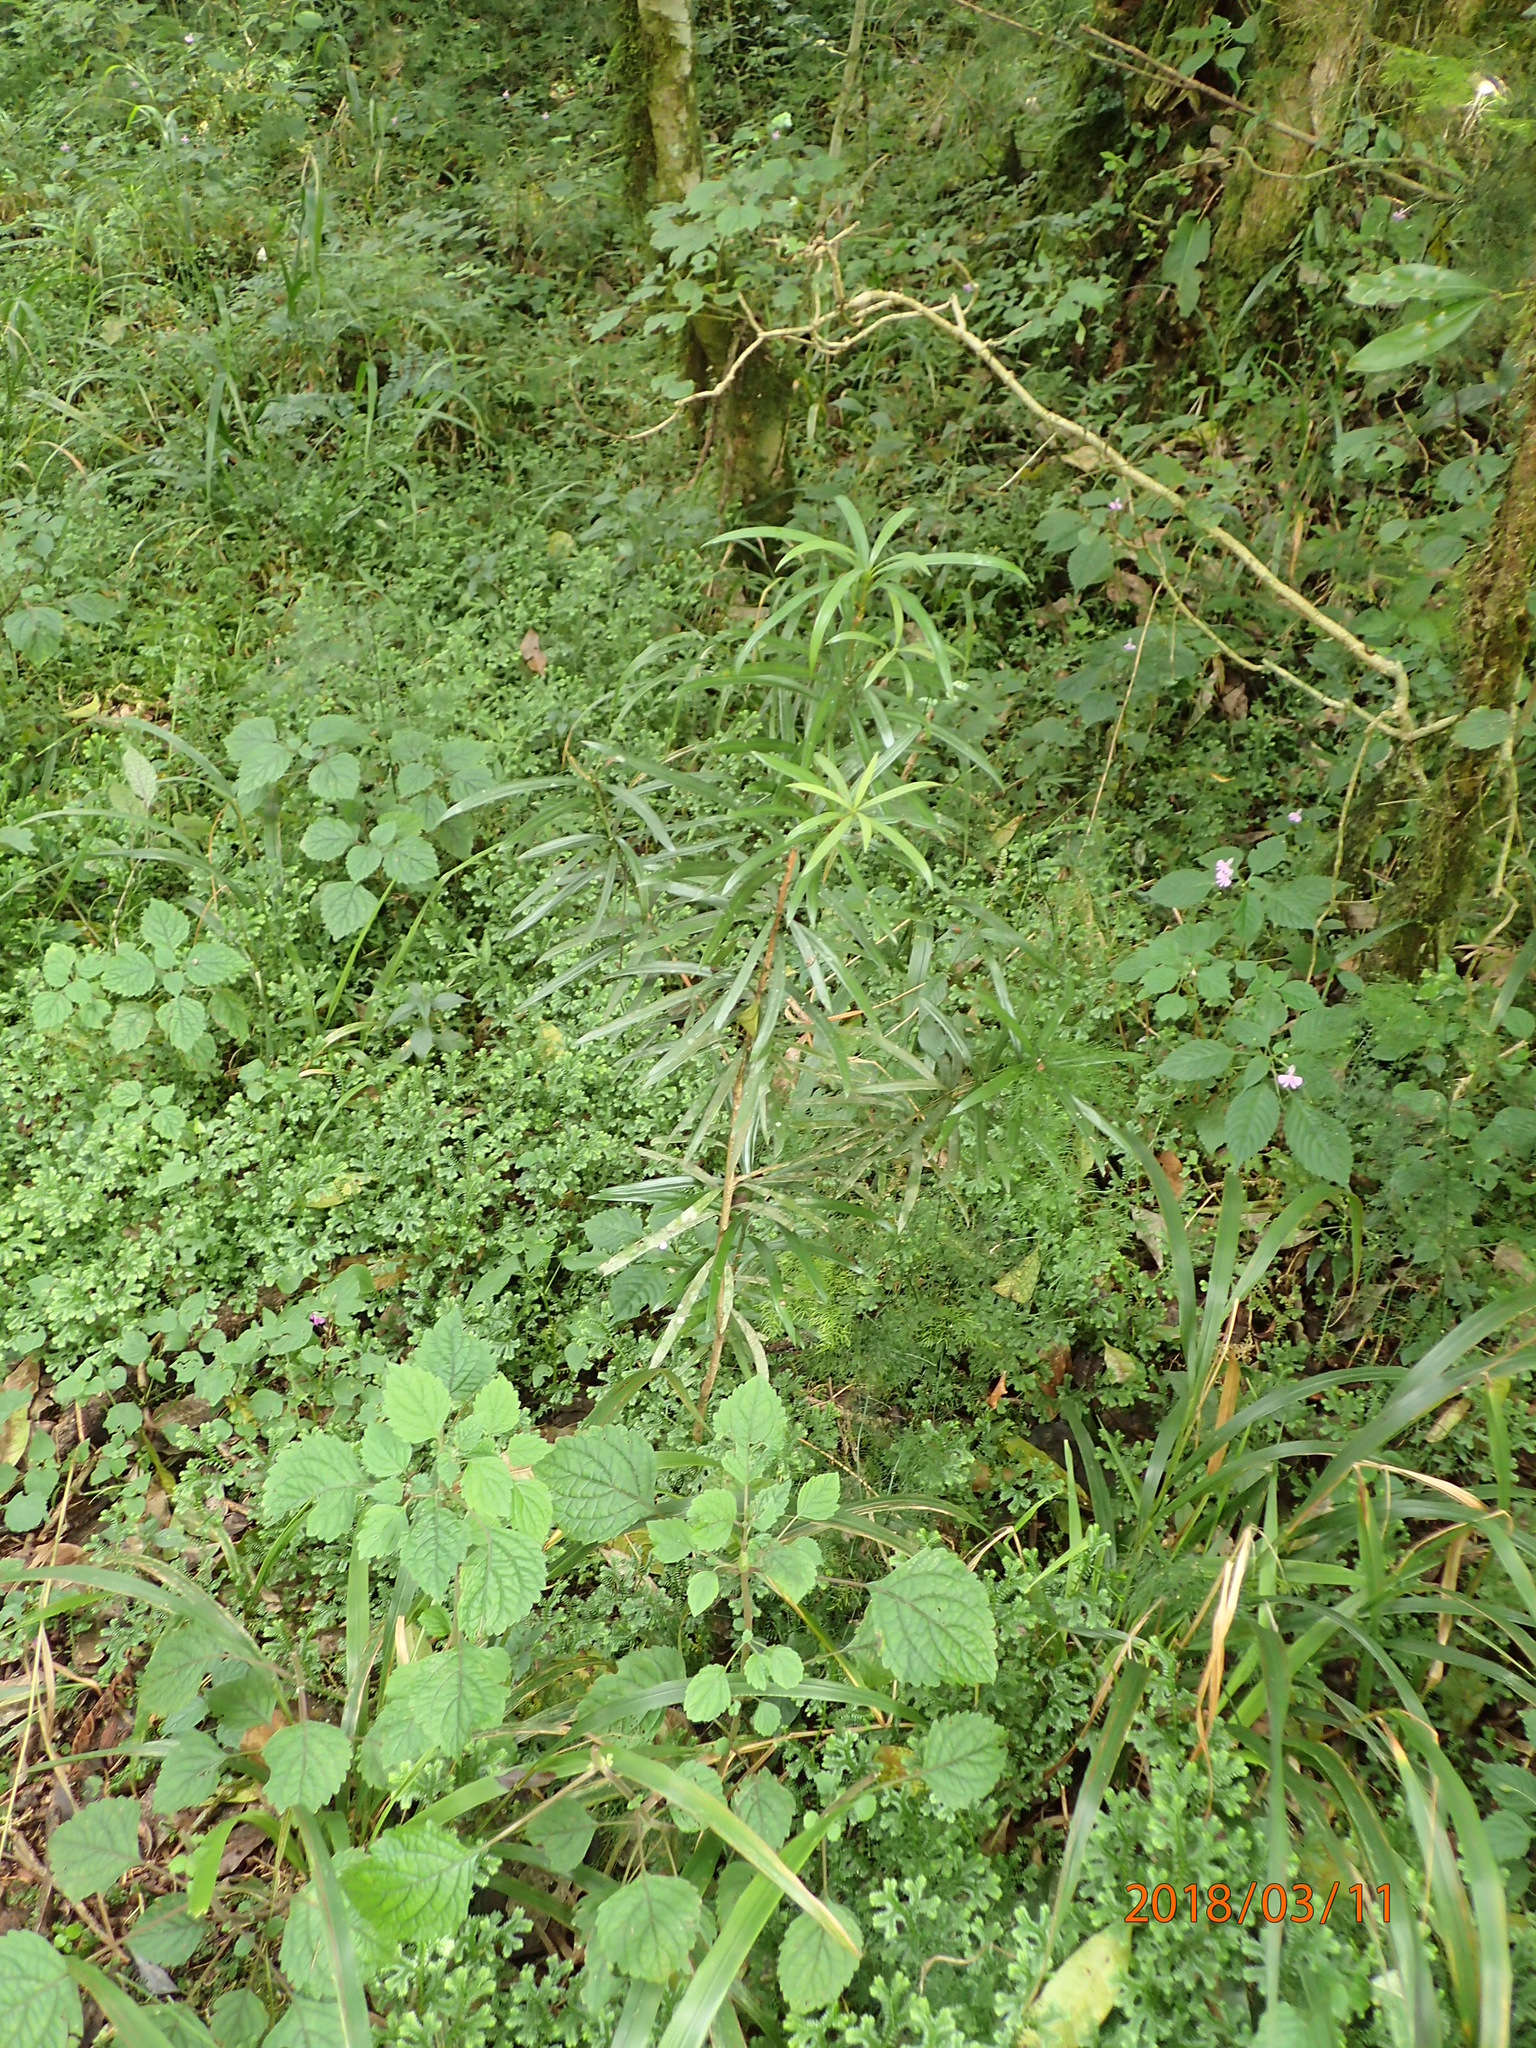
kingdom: Plantae
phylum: Tracheophyta
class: Lycopodiopsida
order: Selaginellales
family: Selaginellaceae
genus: Selaginella
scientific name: Selaginella kraussiana
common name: Krauss' spikemoss
